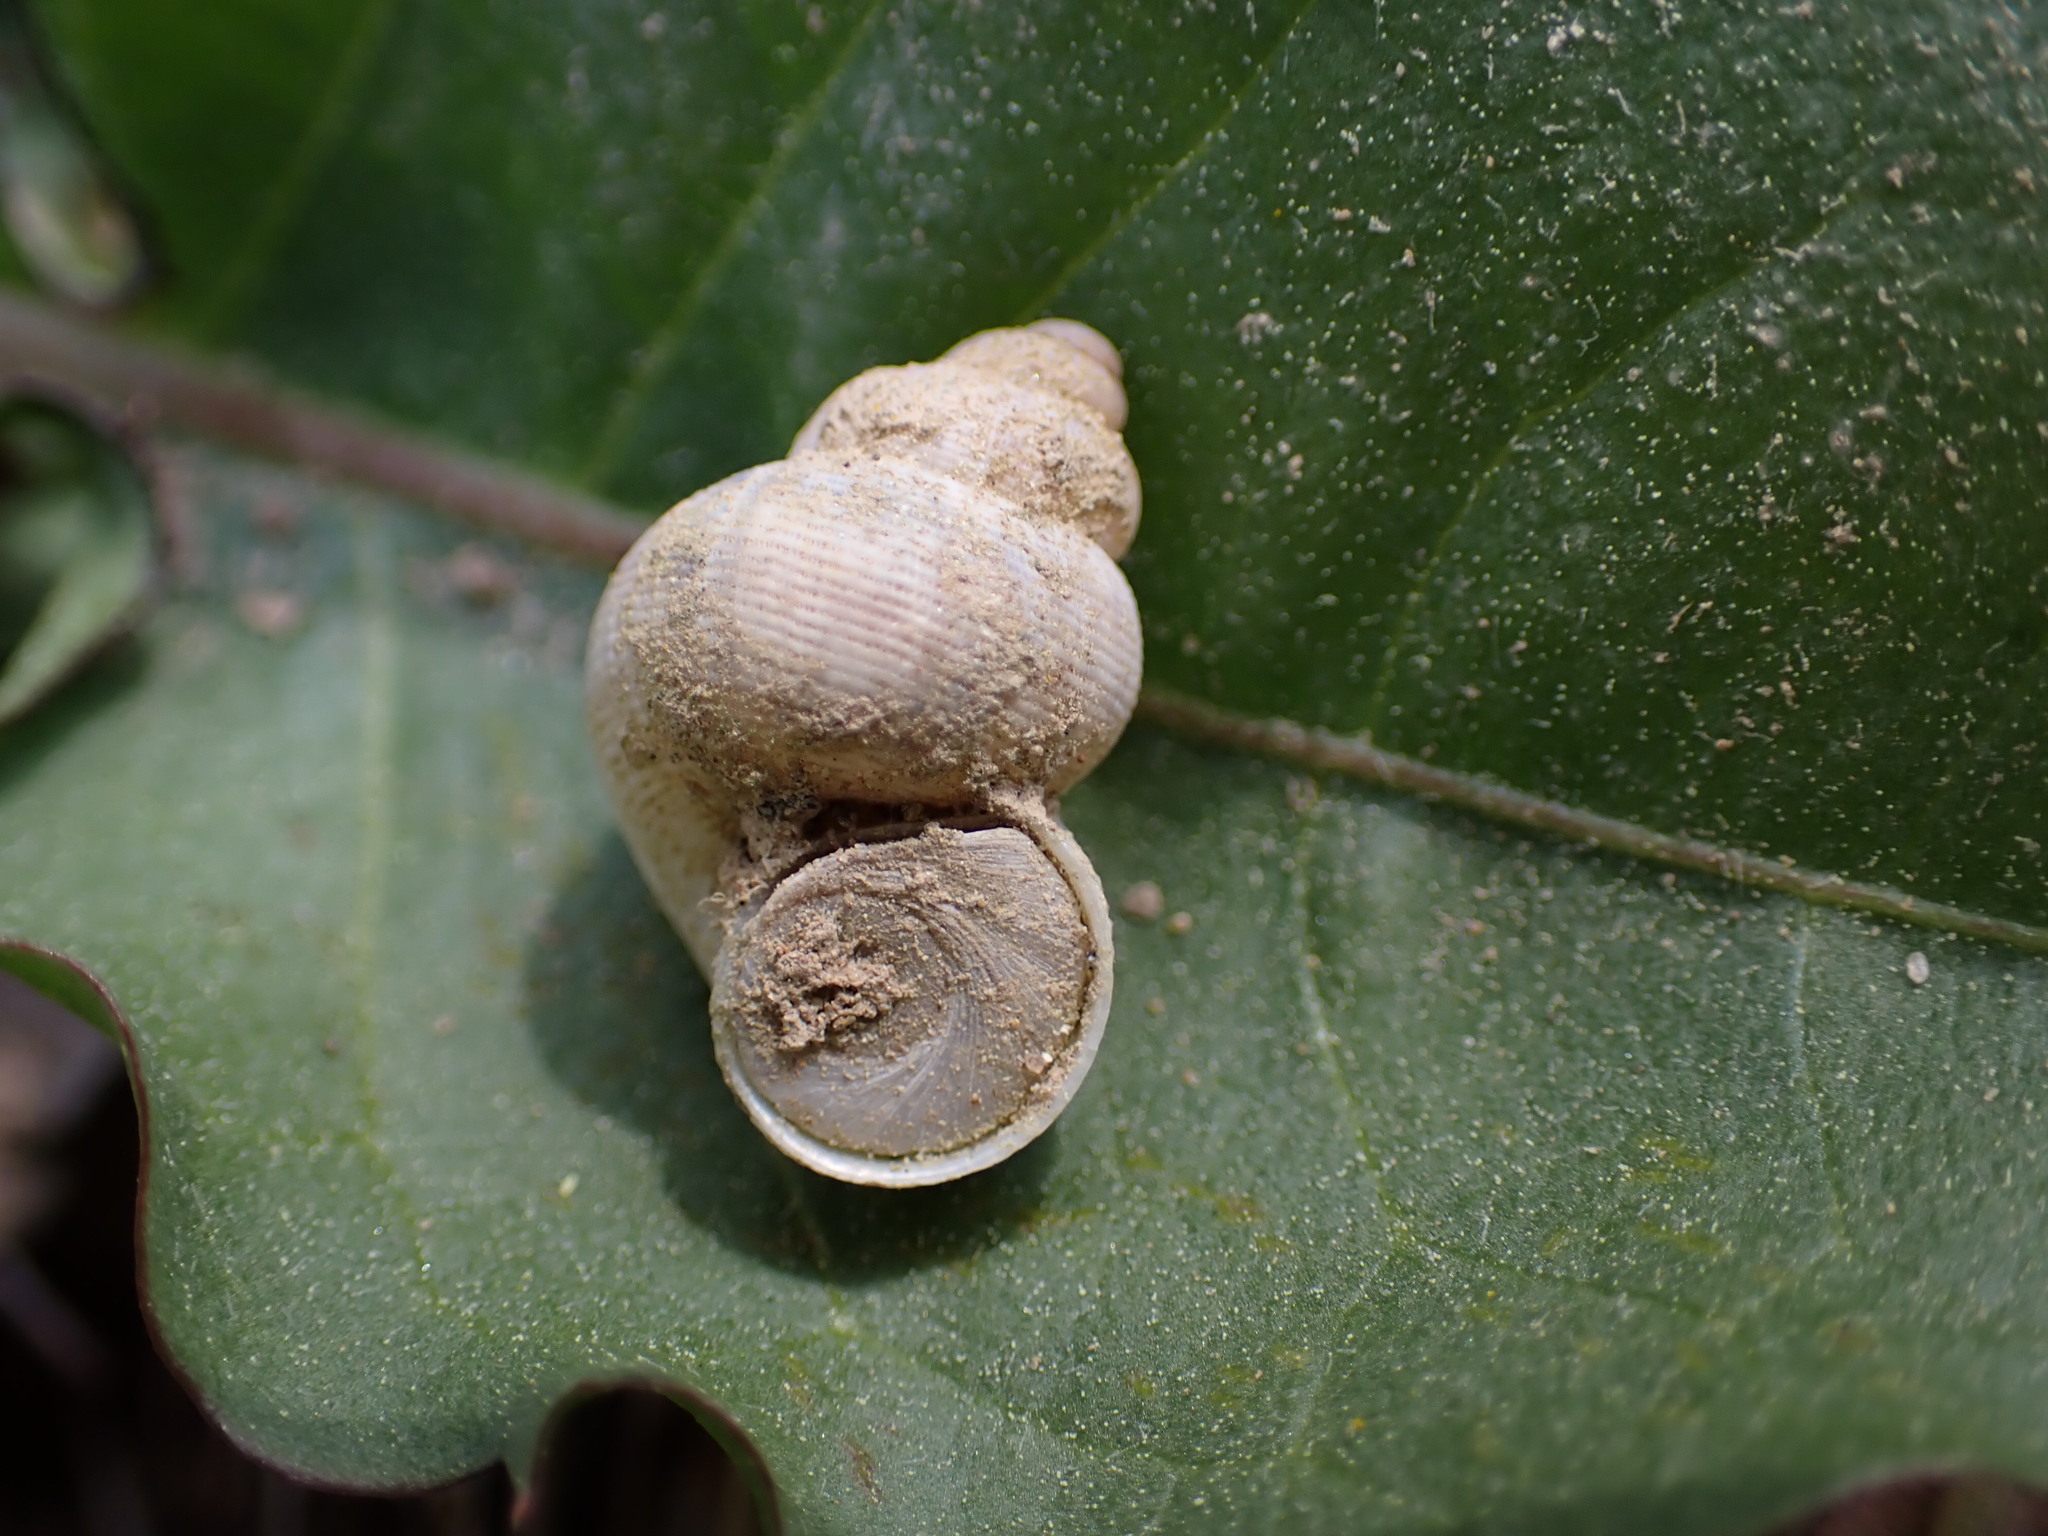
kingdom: Animalia
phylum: Mollusca
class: Gastropoda
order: Littorinimorpha
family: Pomatiidae
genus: Pomatias
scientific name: Pomatias elegans
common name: Red-mouthed snail
